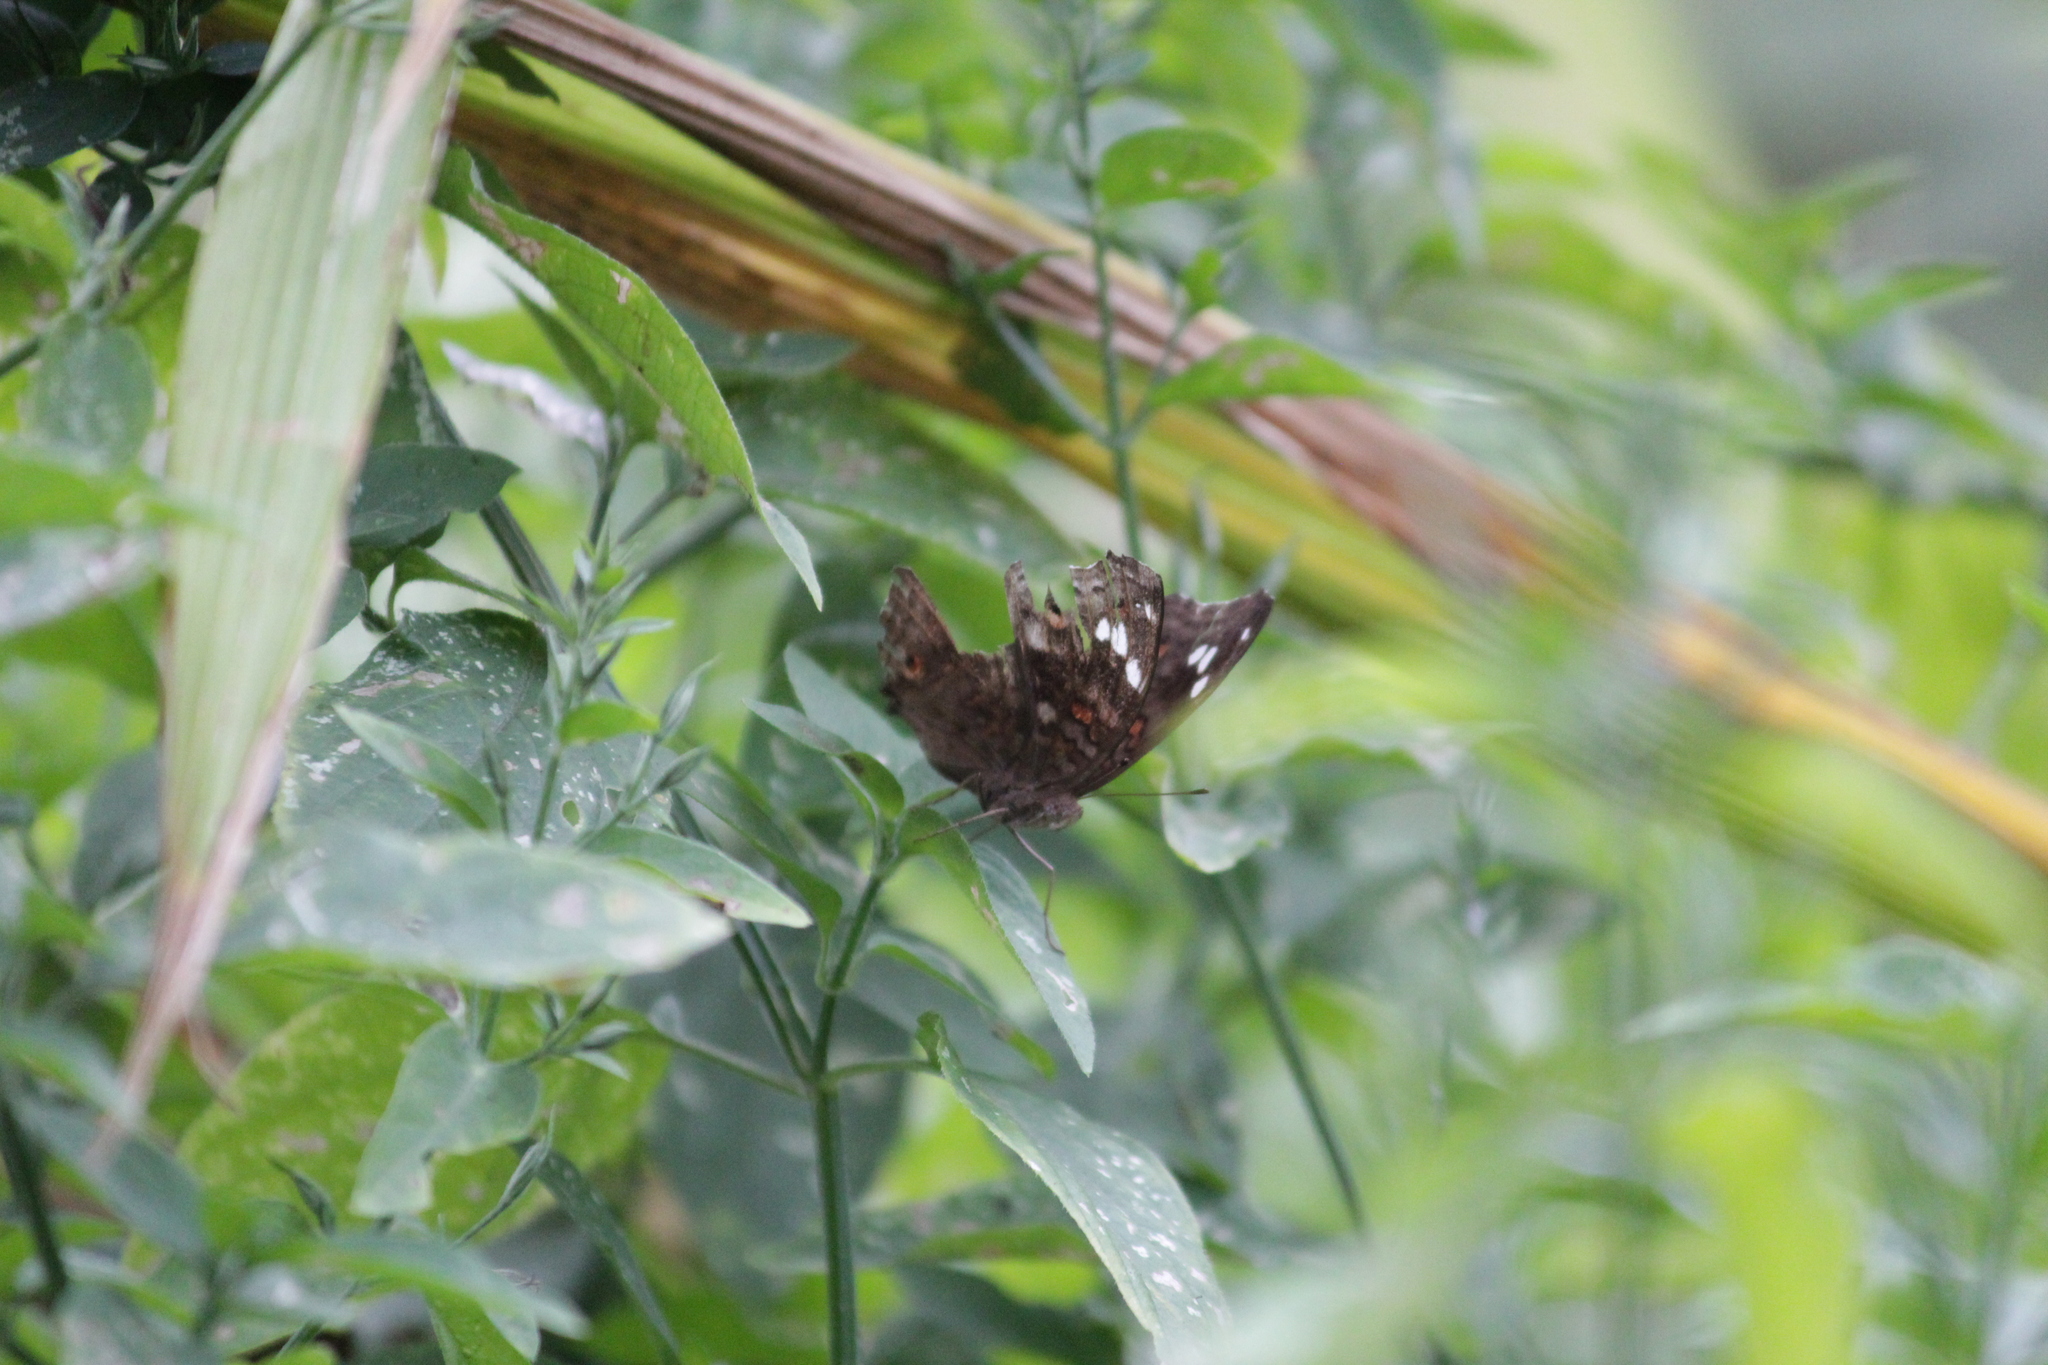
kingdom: Animalia
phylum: Arthropoda
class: Insecta
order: Lepidoptera
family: Nymphalidae
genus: Junonia
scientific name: Junonia natalica
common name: Brown pansy
